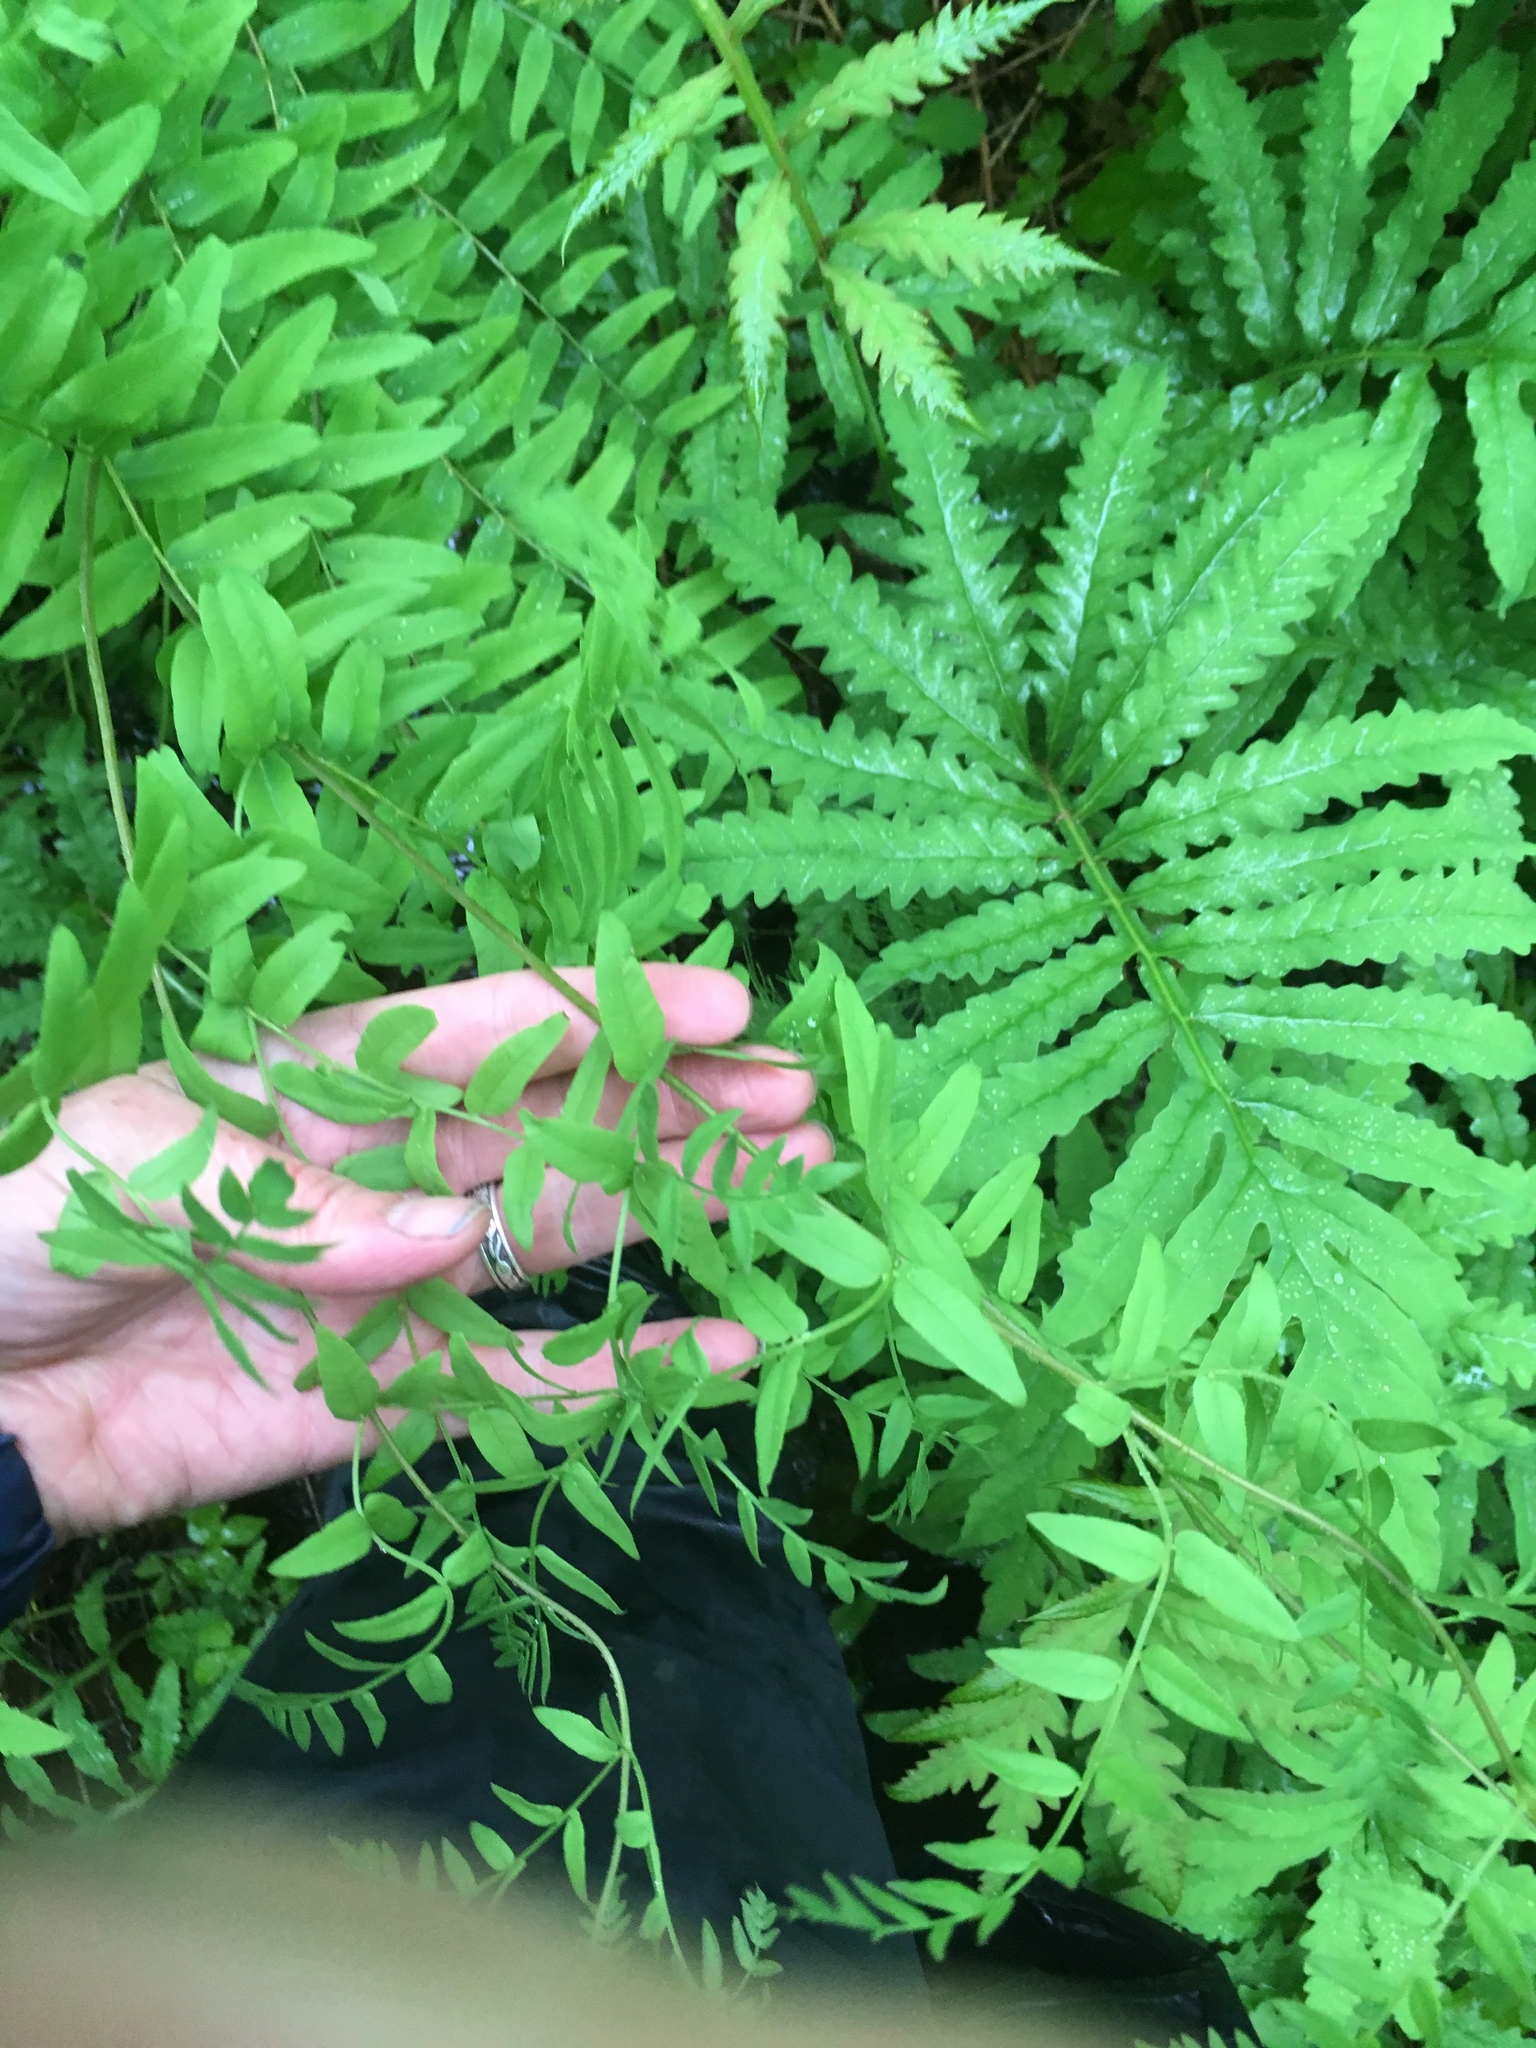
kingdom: Plantae
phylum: Tracheophyta
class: Polypodiopsida
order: Osmundales
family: Osmundaceae
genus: Osmunda
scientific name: Osmunda spectabilis
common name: American royal fern
